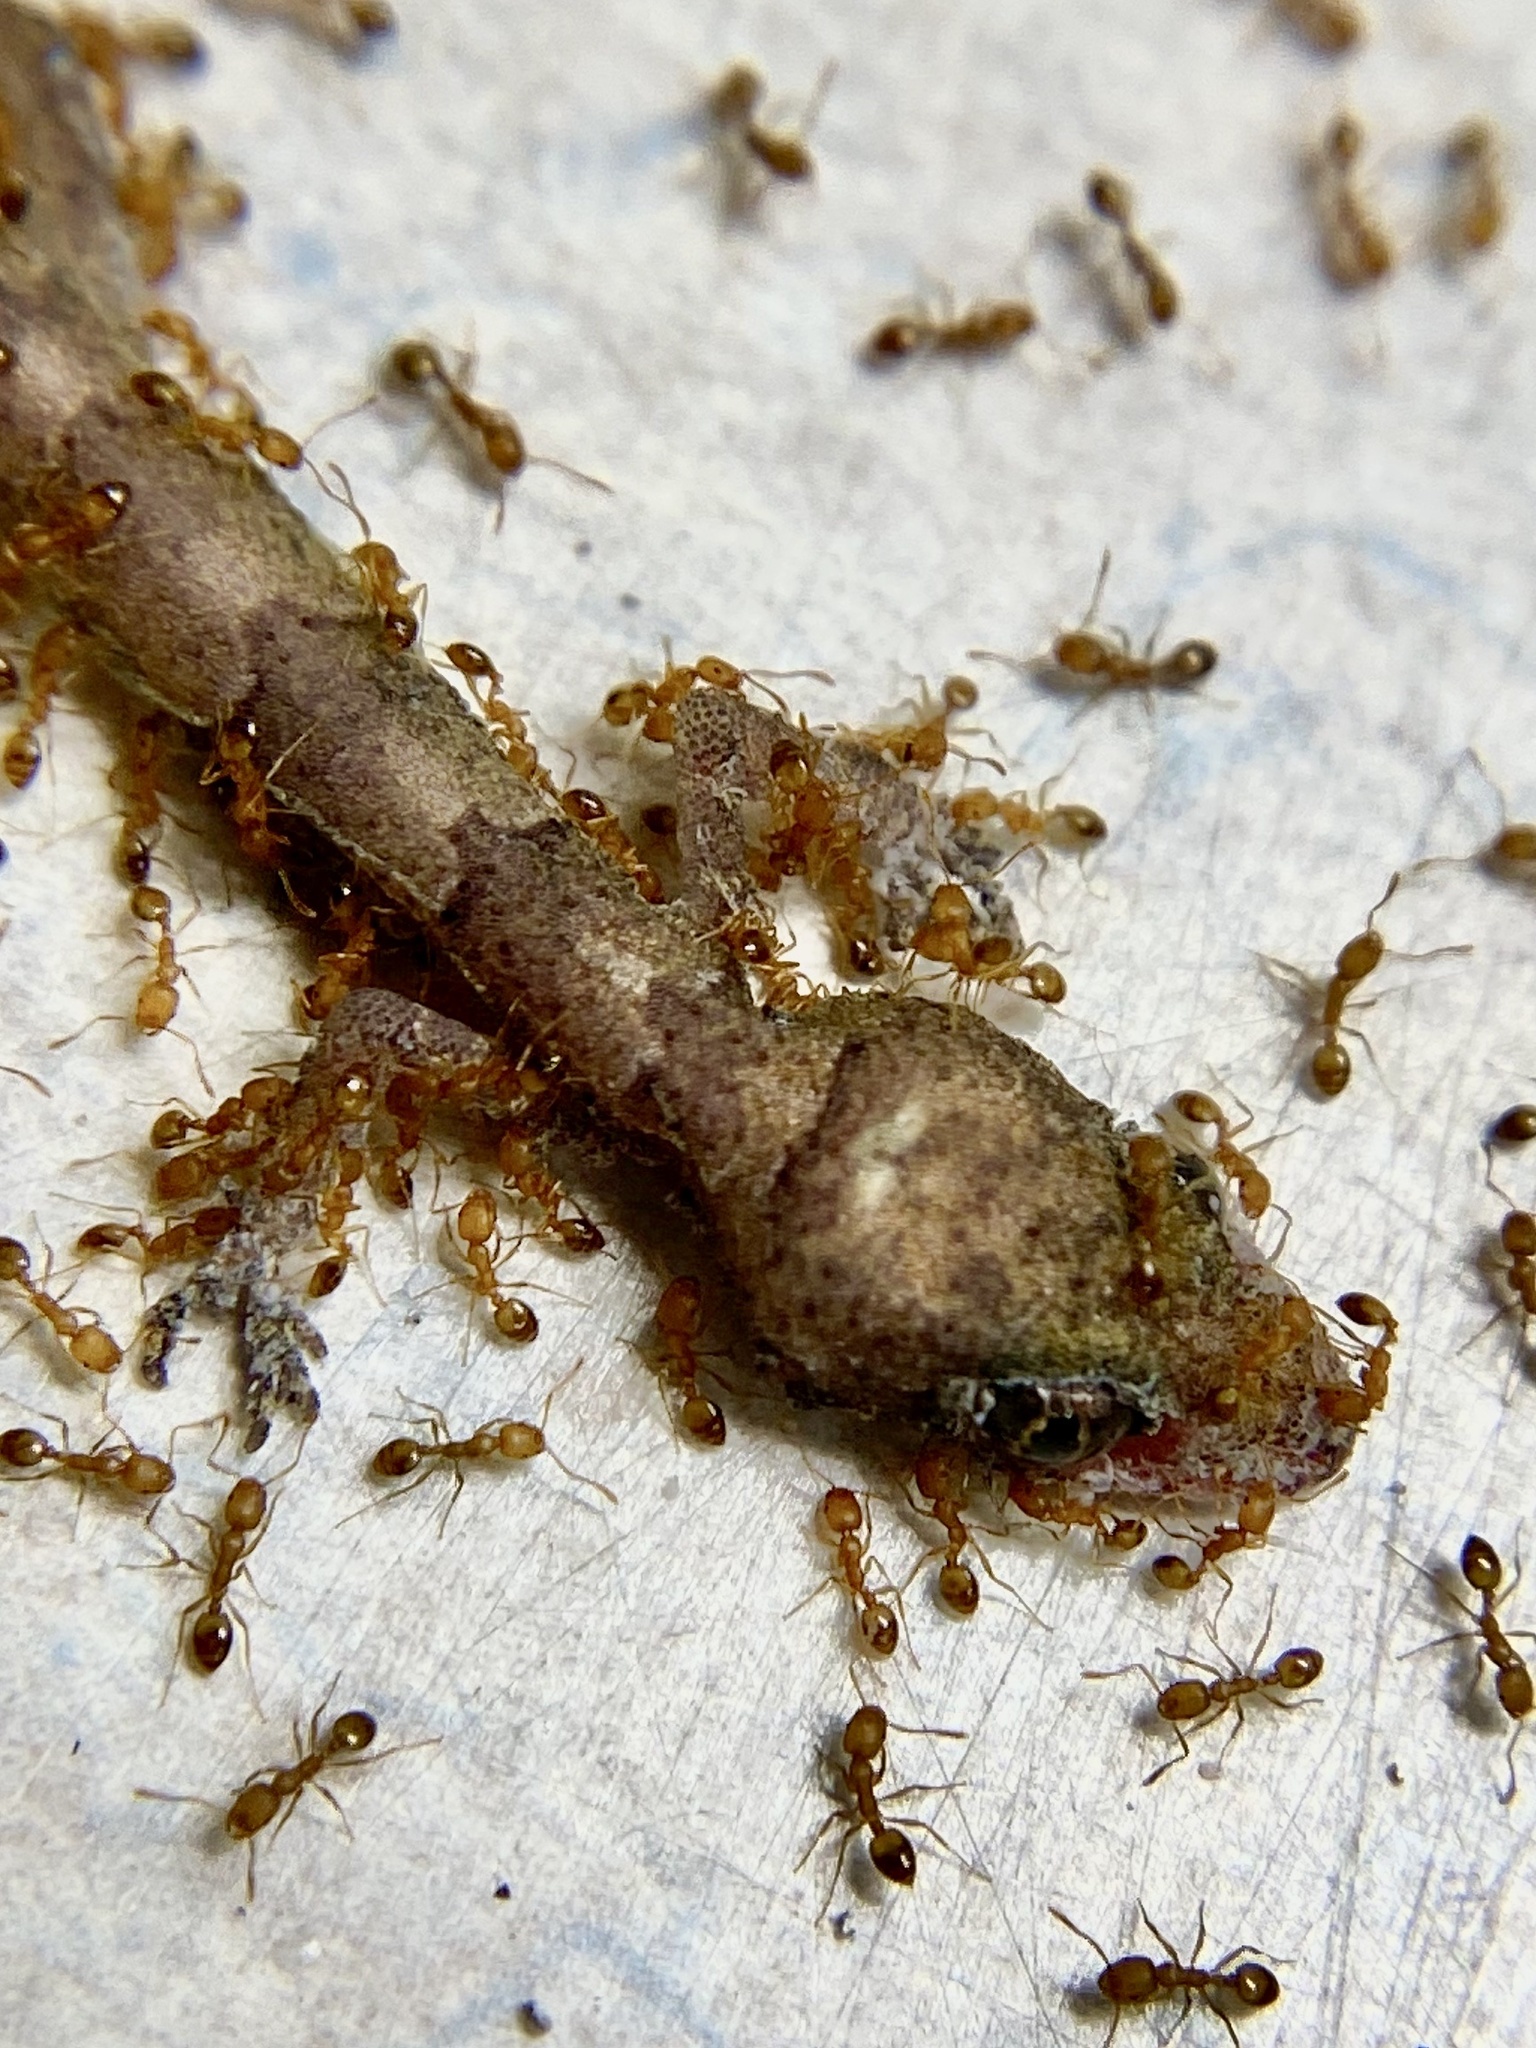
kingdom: Animalia
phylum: Arthropoda
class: Insecta
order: Hymenoptera
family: Formicidae
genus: Monomorium
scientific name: Monomorium pharaonis
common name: Pharaoh ant
